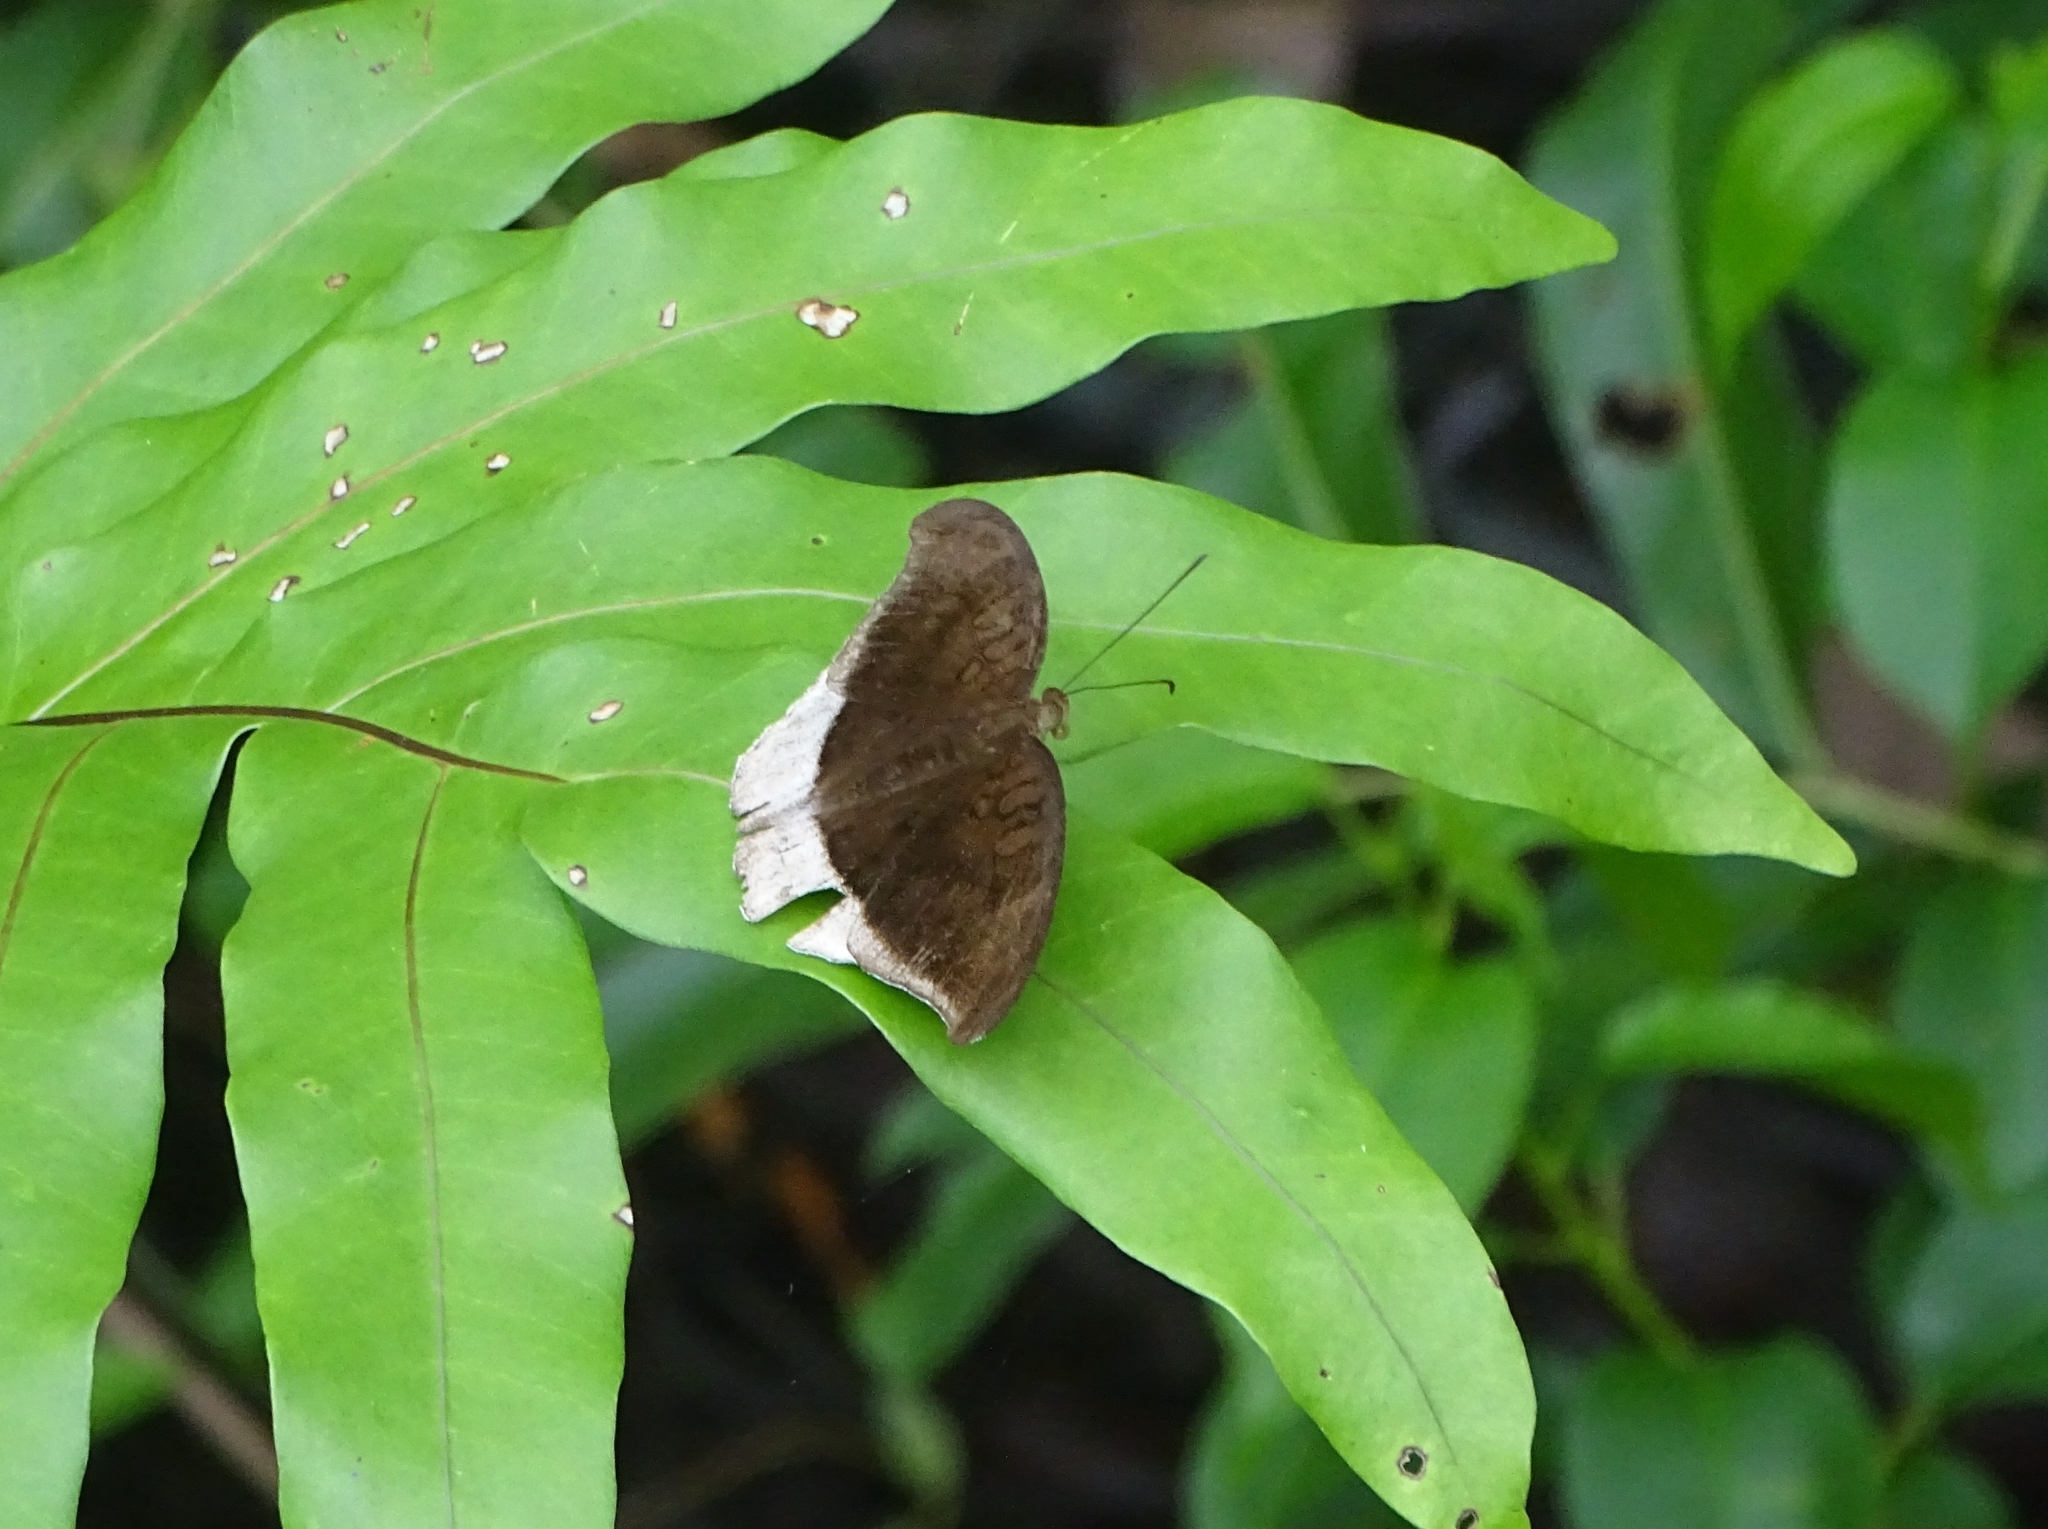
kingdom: Animalia
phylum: Arthropoda
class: Insecta
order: Lepidoptera
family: Nymphalidae
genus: Tanaecia
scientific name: Tanaecia lepidea
